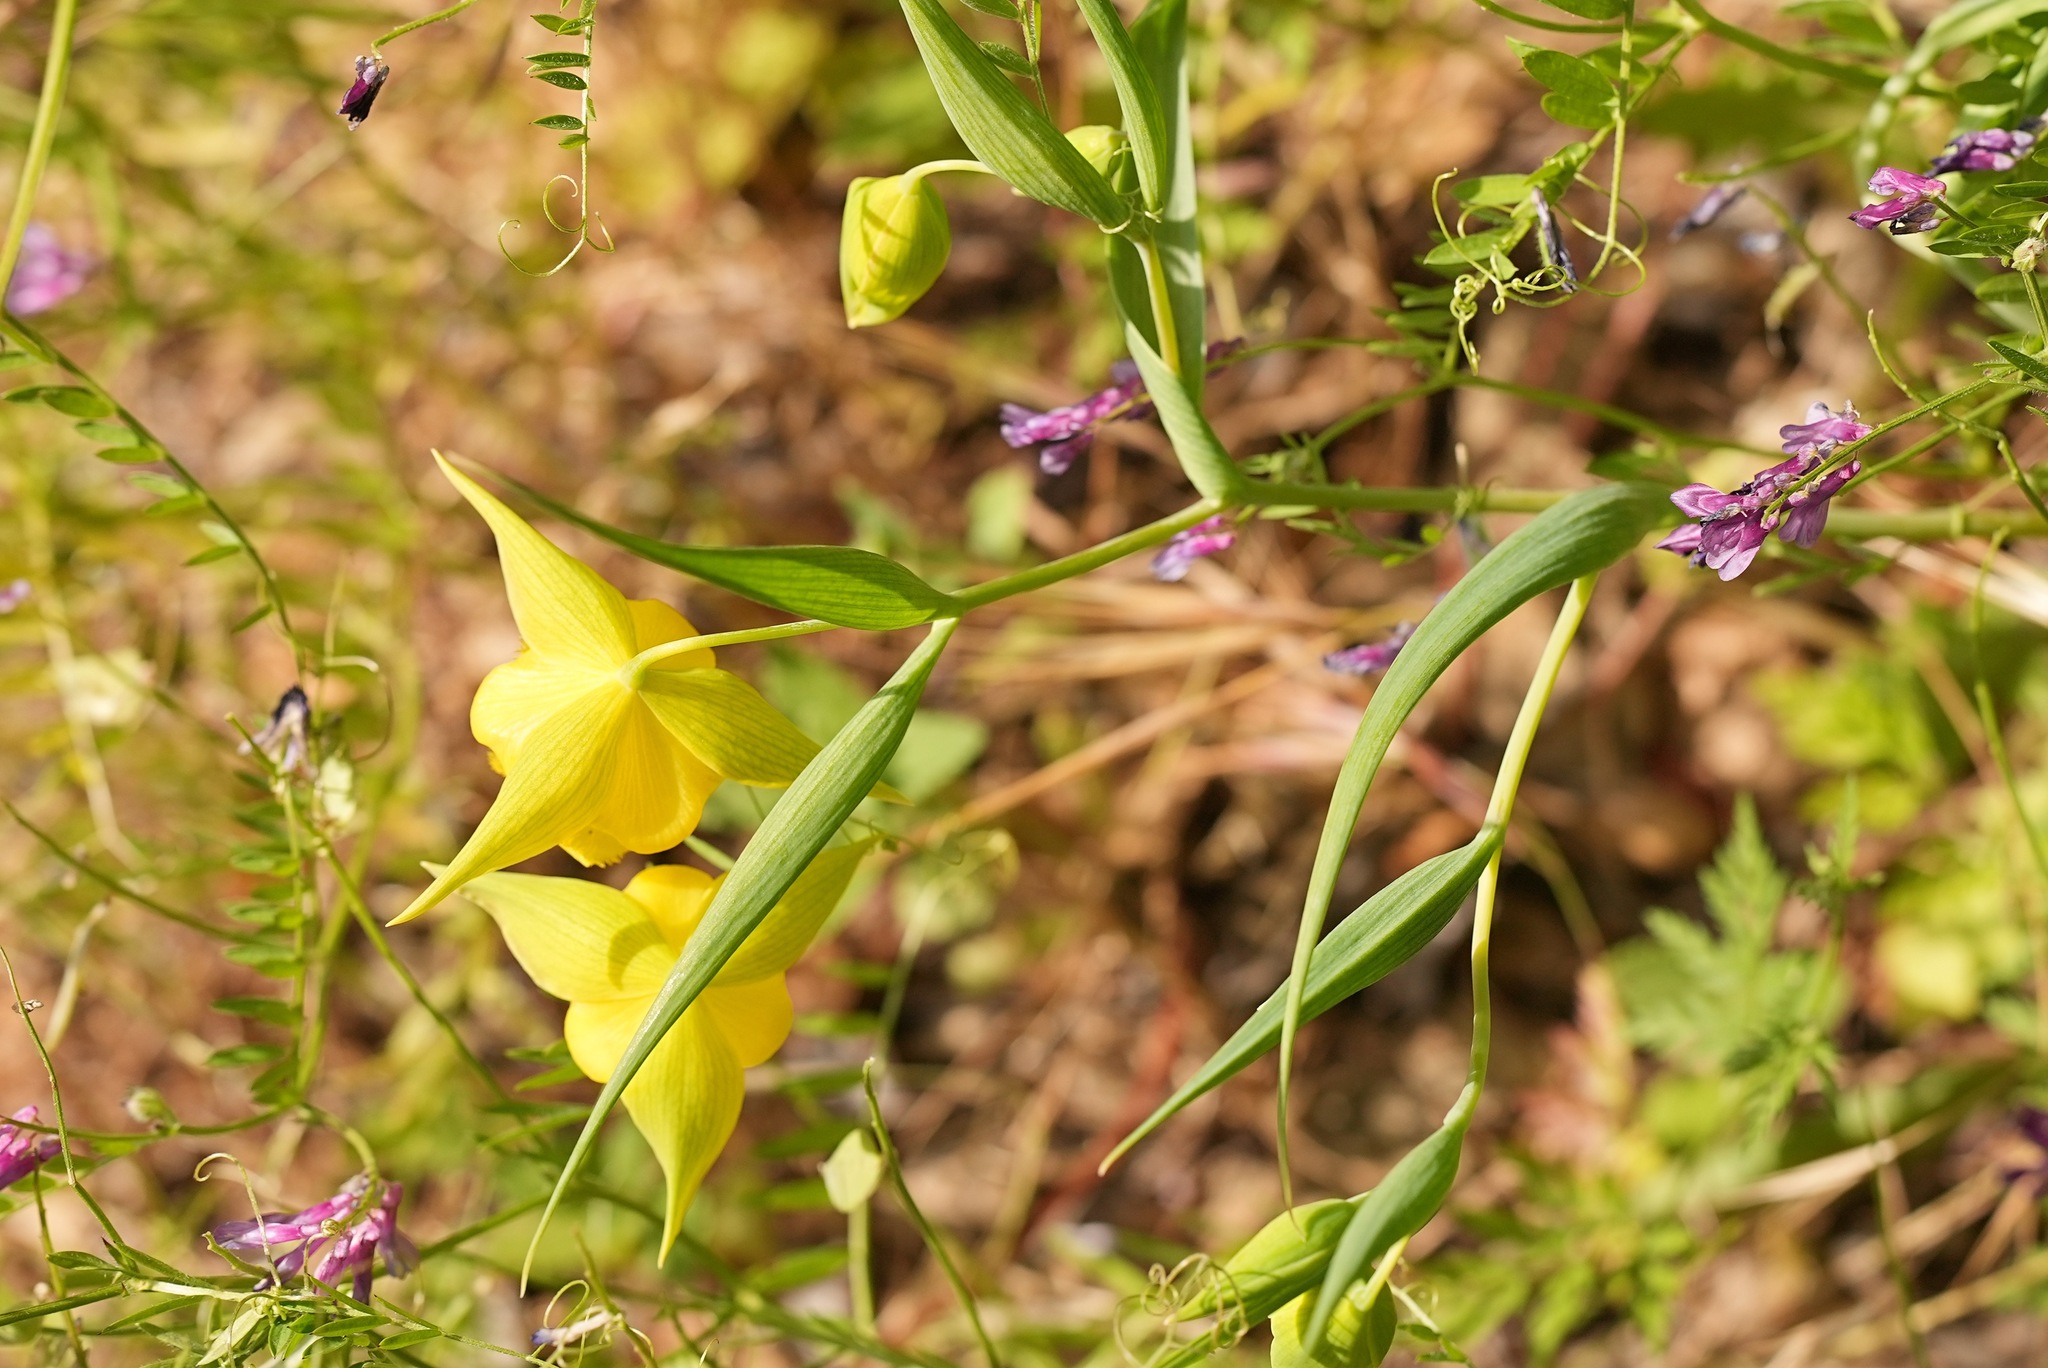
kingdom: Plantae
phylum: Tracheophyta
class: Liliopsida
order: Liliales
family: Liliaceae
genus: Calochortus
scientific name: Calochortus pulchellus
